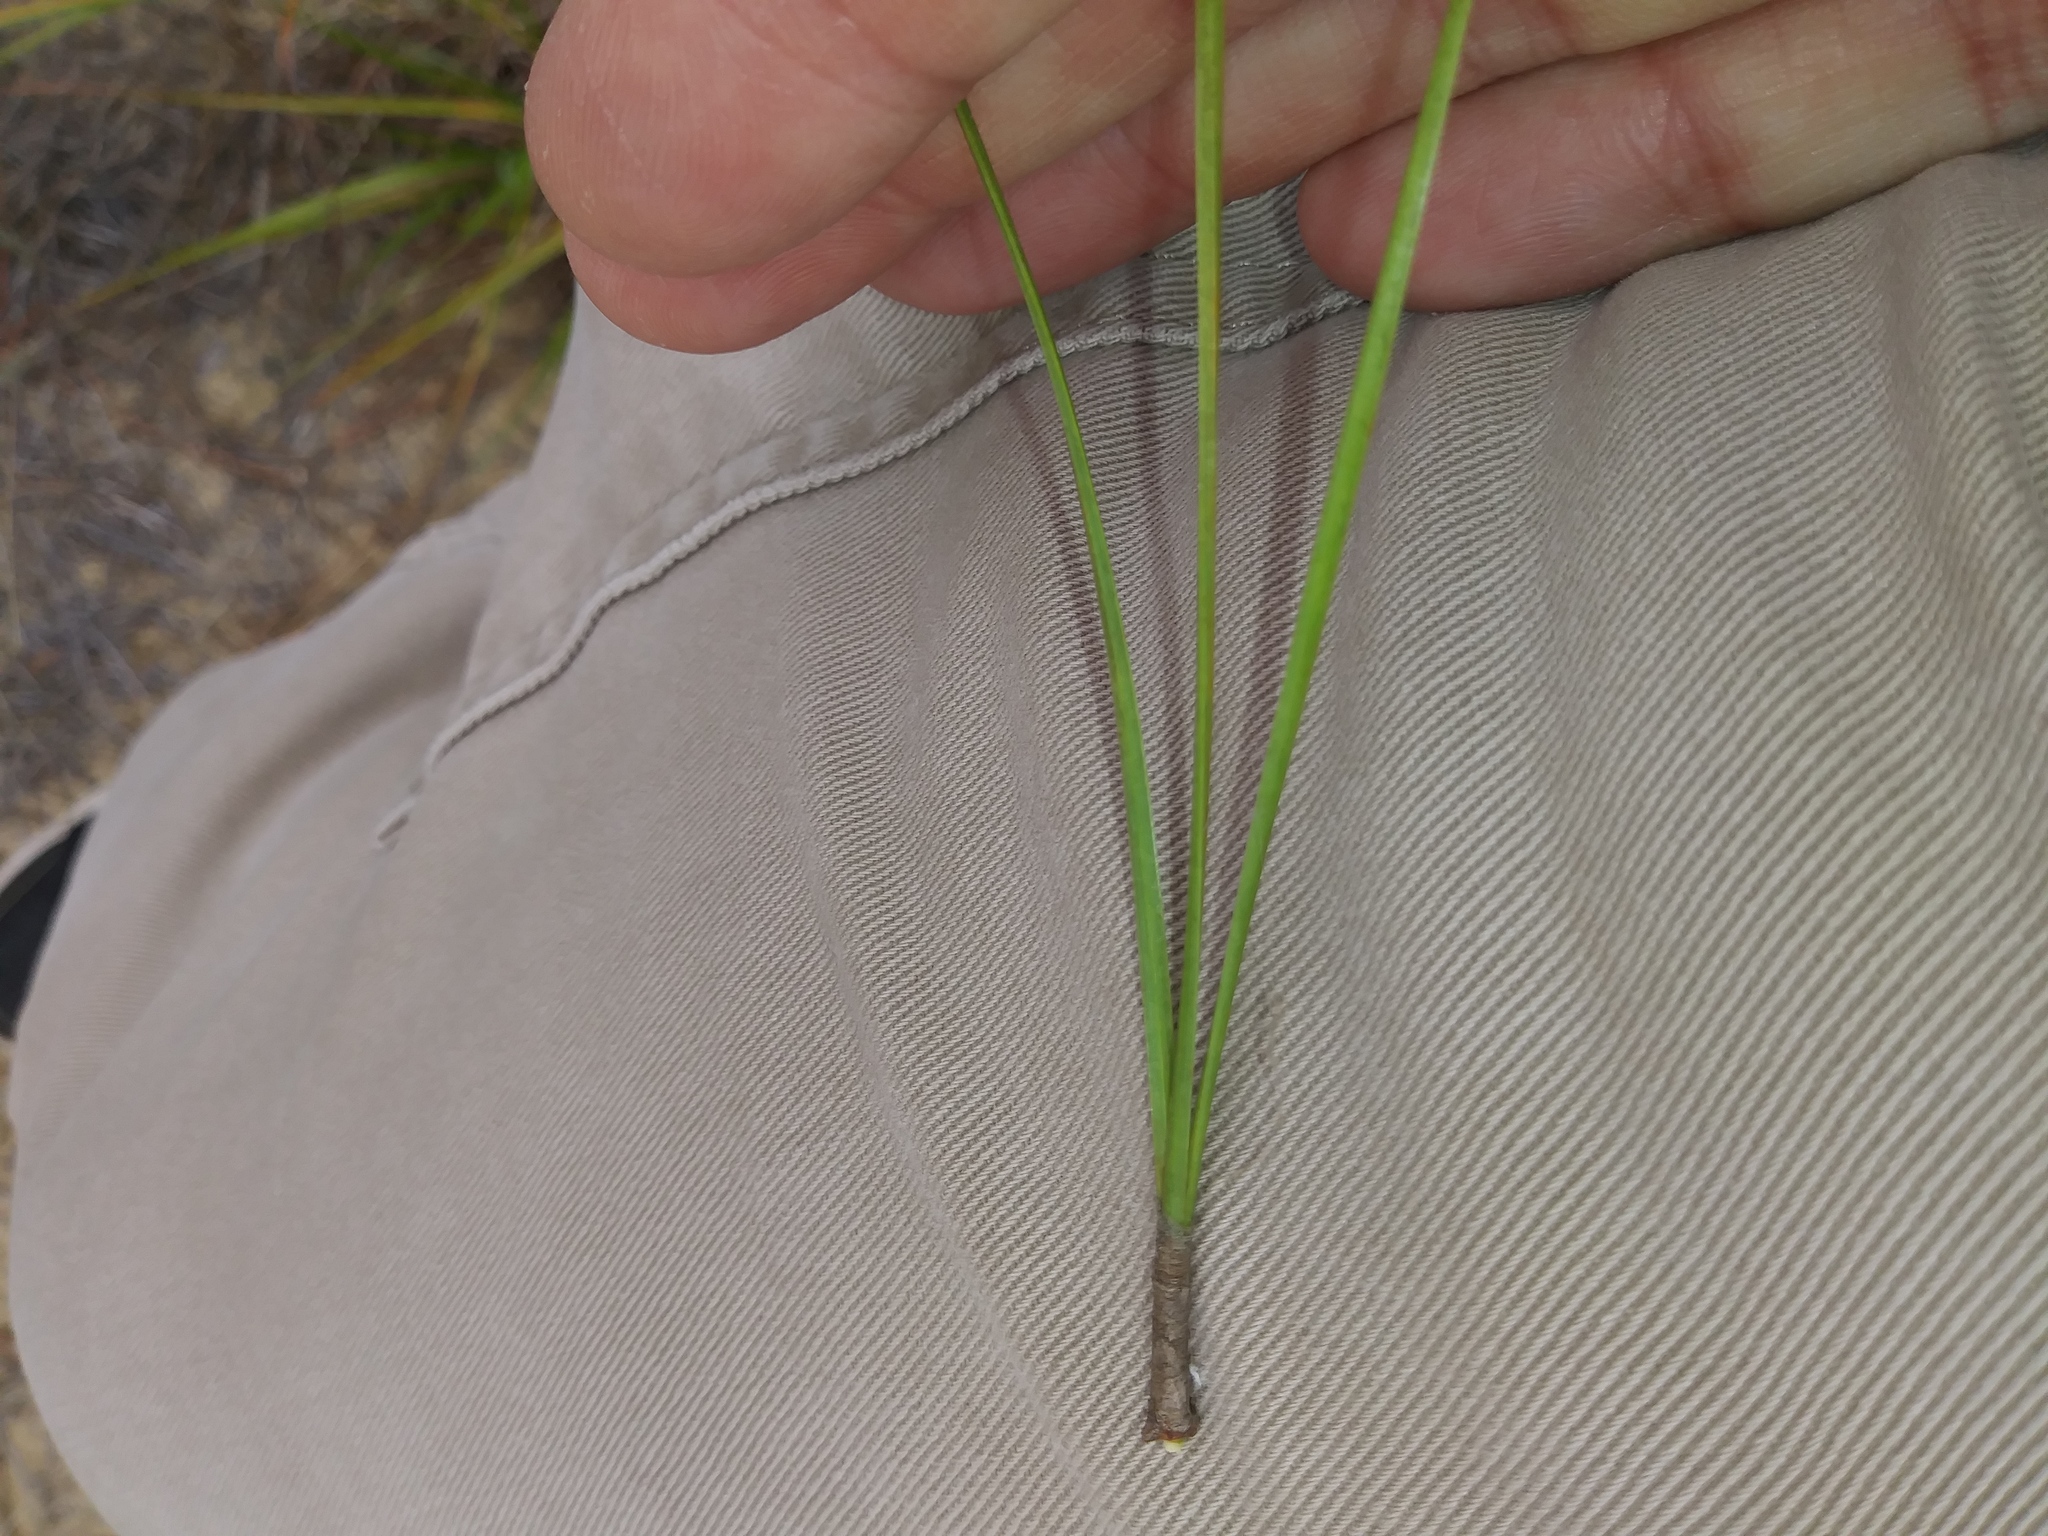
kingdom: Plantae
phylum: Tracheophyta
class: Pinopsida
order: Pinales
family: Pinaceae
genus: Pinus
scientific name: Pinus taeda
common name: Loblolly pine
